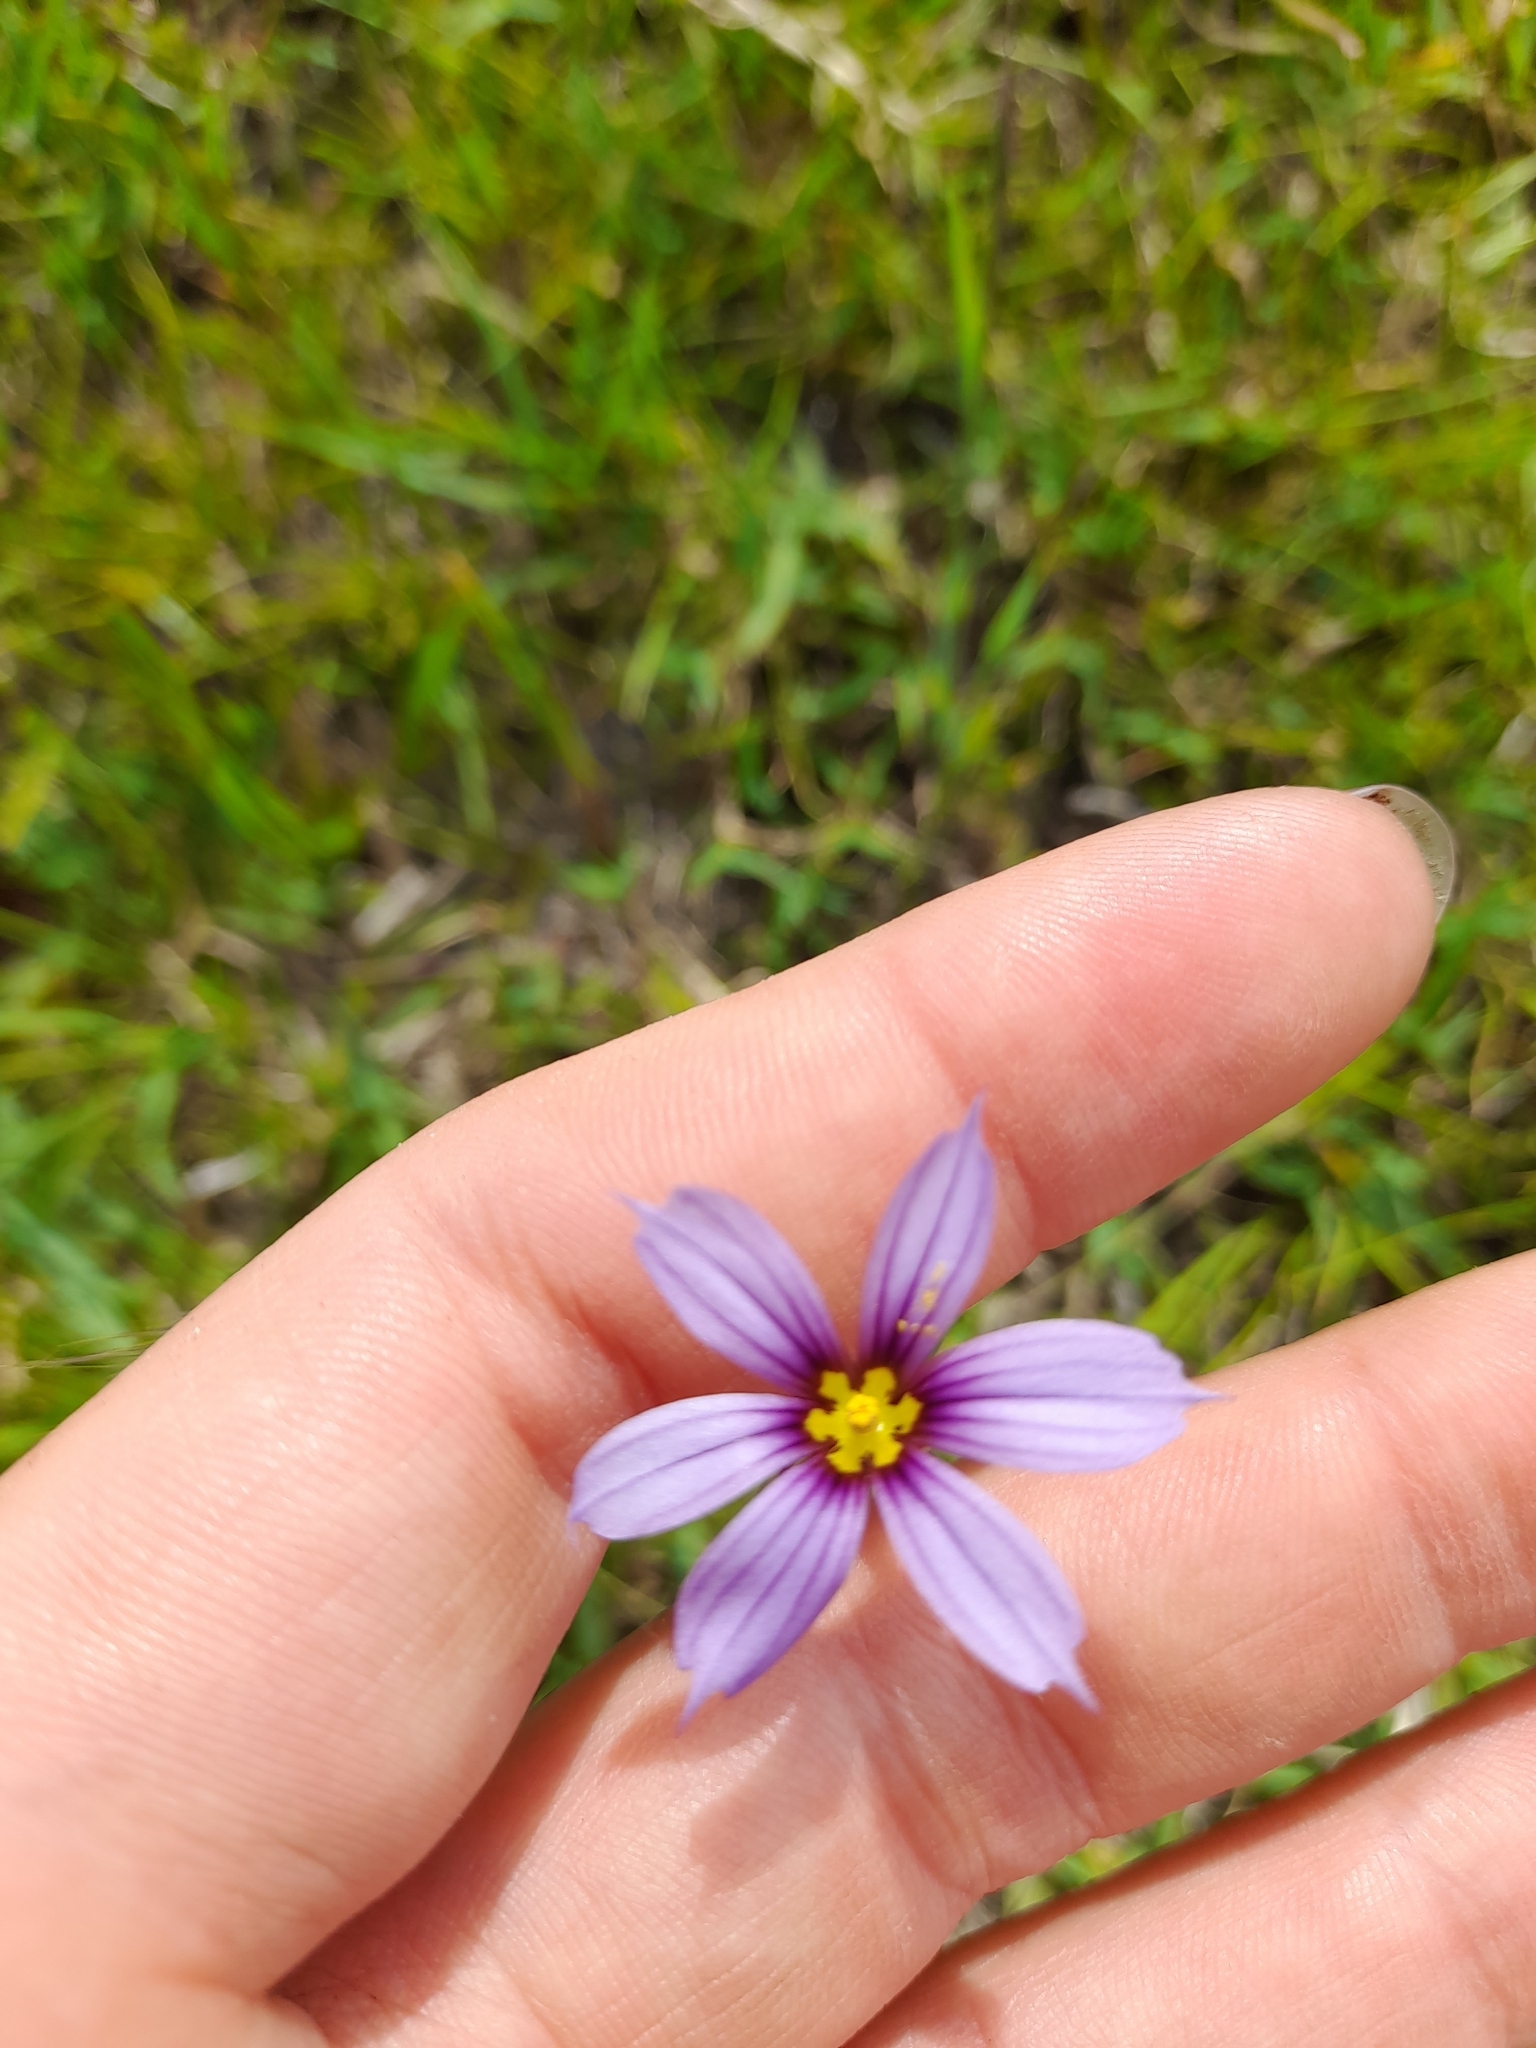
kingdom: Plantae
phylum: Tracheophyta
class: Liliopsida
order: Asparagales
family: Iridaceae
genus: Sisyrinchium
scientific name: Sisyrinchium platense
